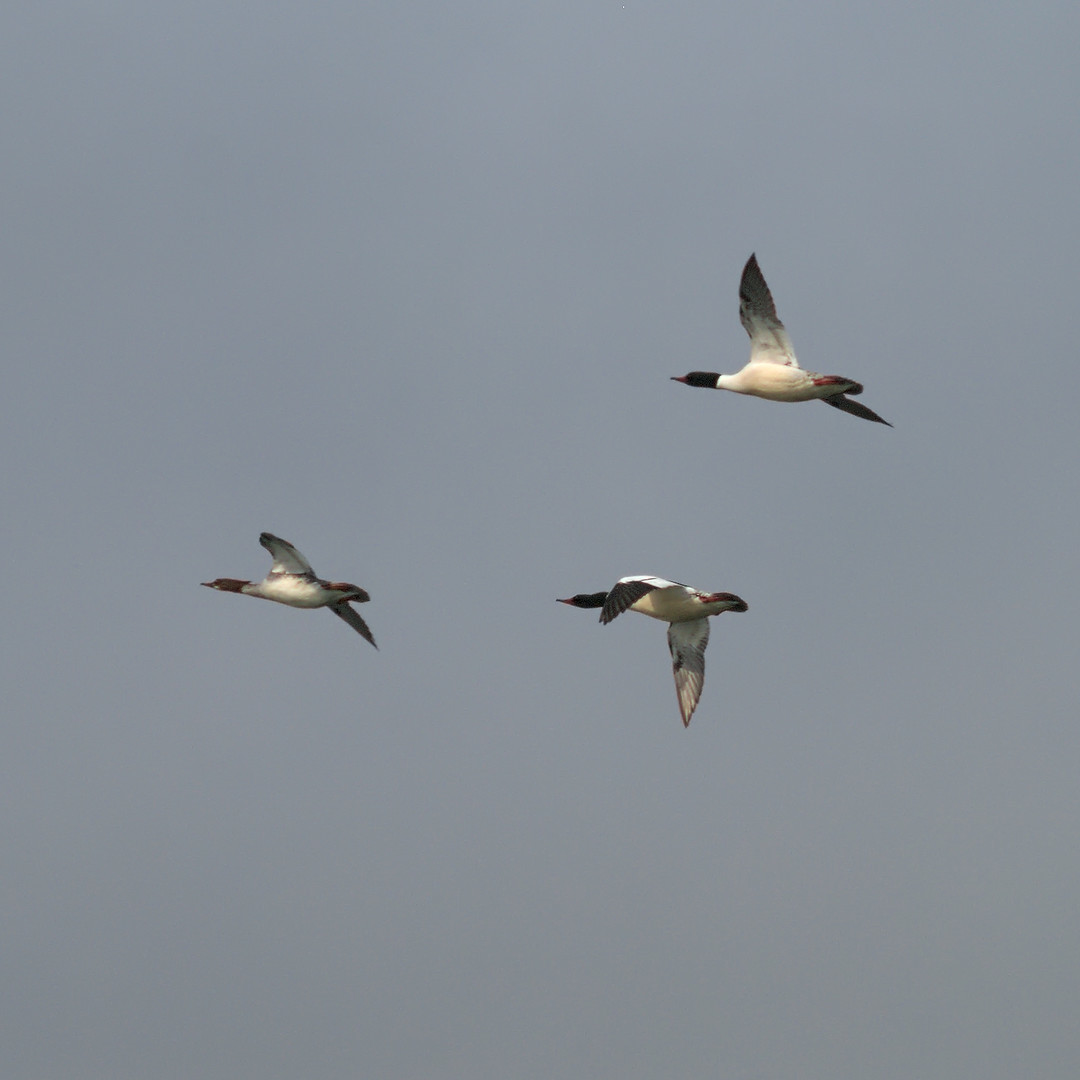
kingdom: Animalia
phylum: Chordata
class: Aves
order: Anseriformes
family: Anatidae
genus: Mergus
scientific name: Mergus merganser
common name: Common merganser
